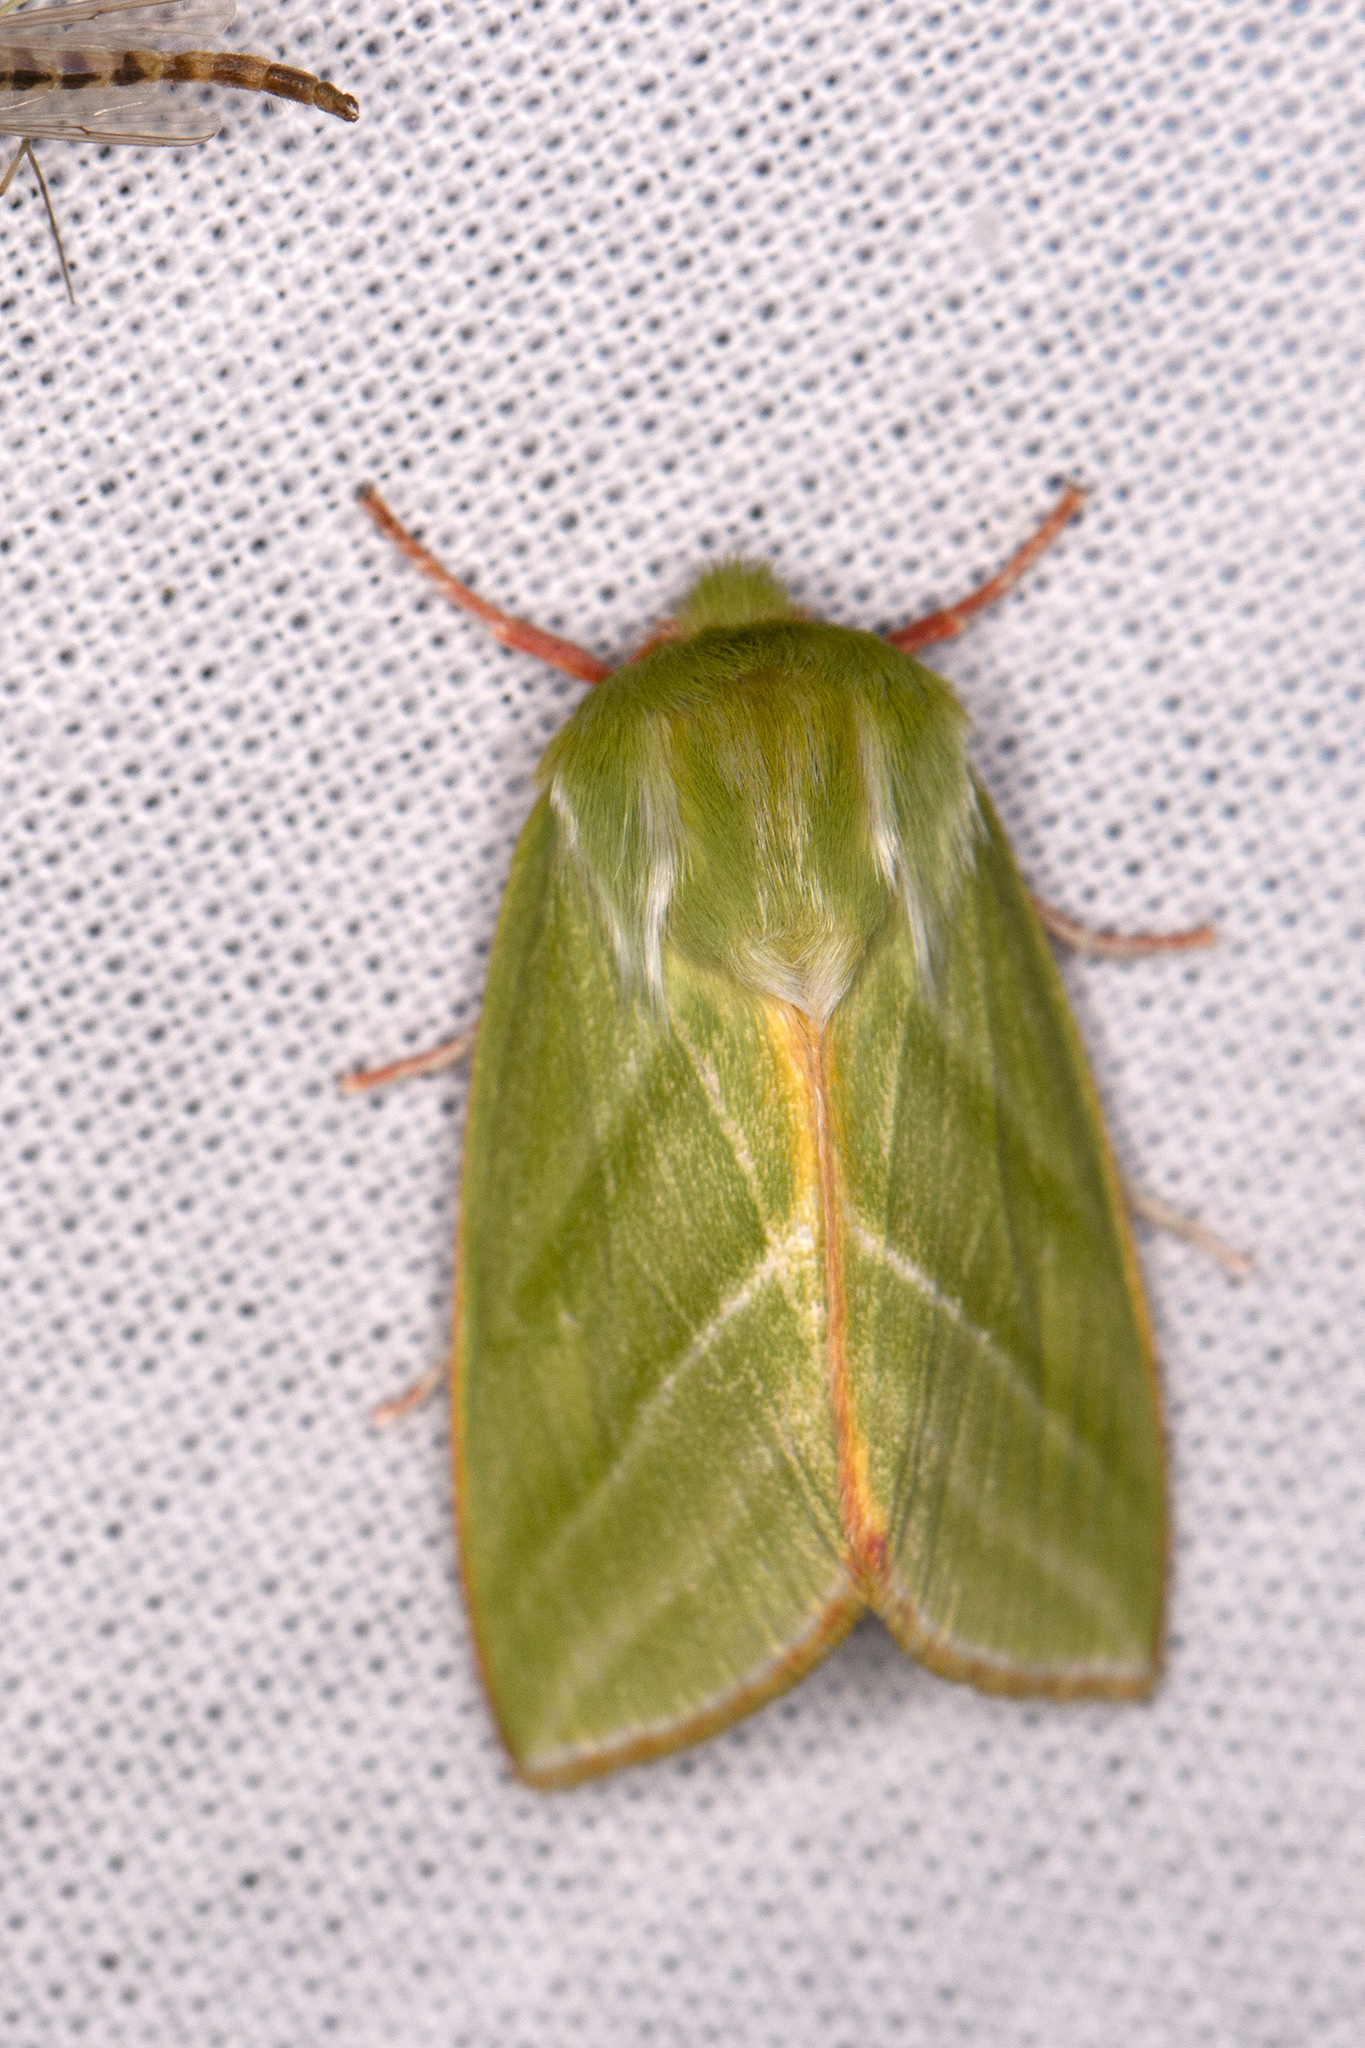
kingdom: Animalia
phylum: Arthropoda
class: Insecta
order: Lepidoptera
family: Nolidae
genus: Pseudoips
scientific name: Pseudoips prasinana
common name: Green silver-lines
